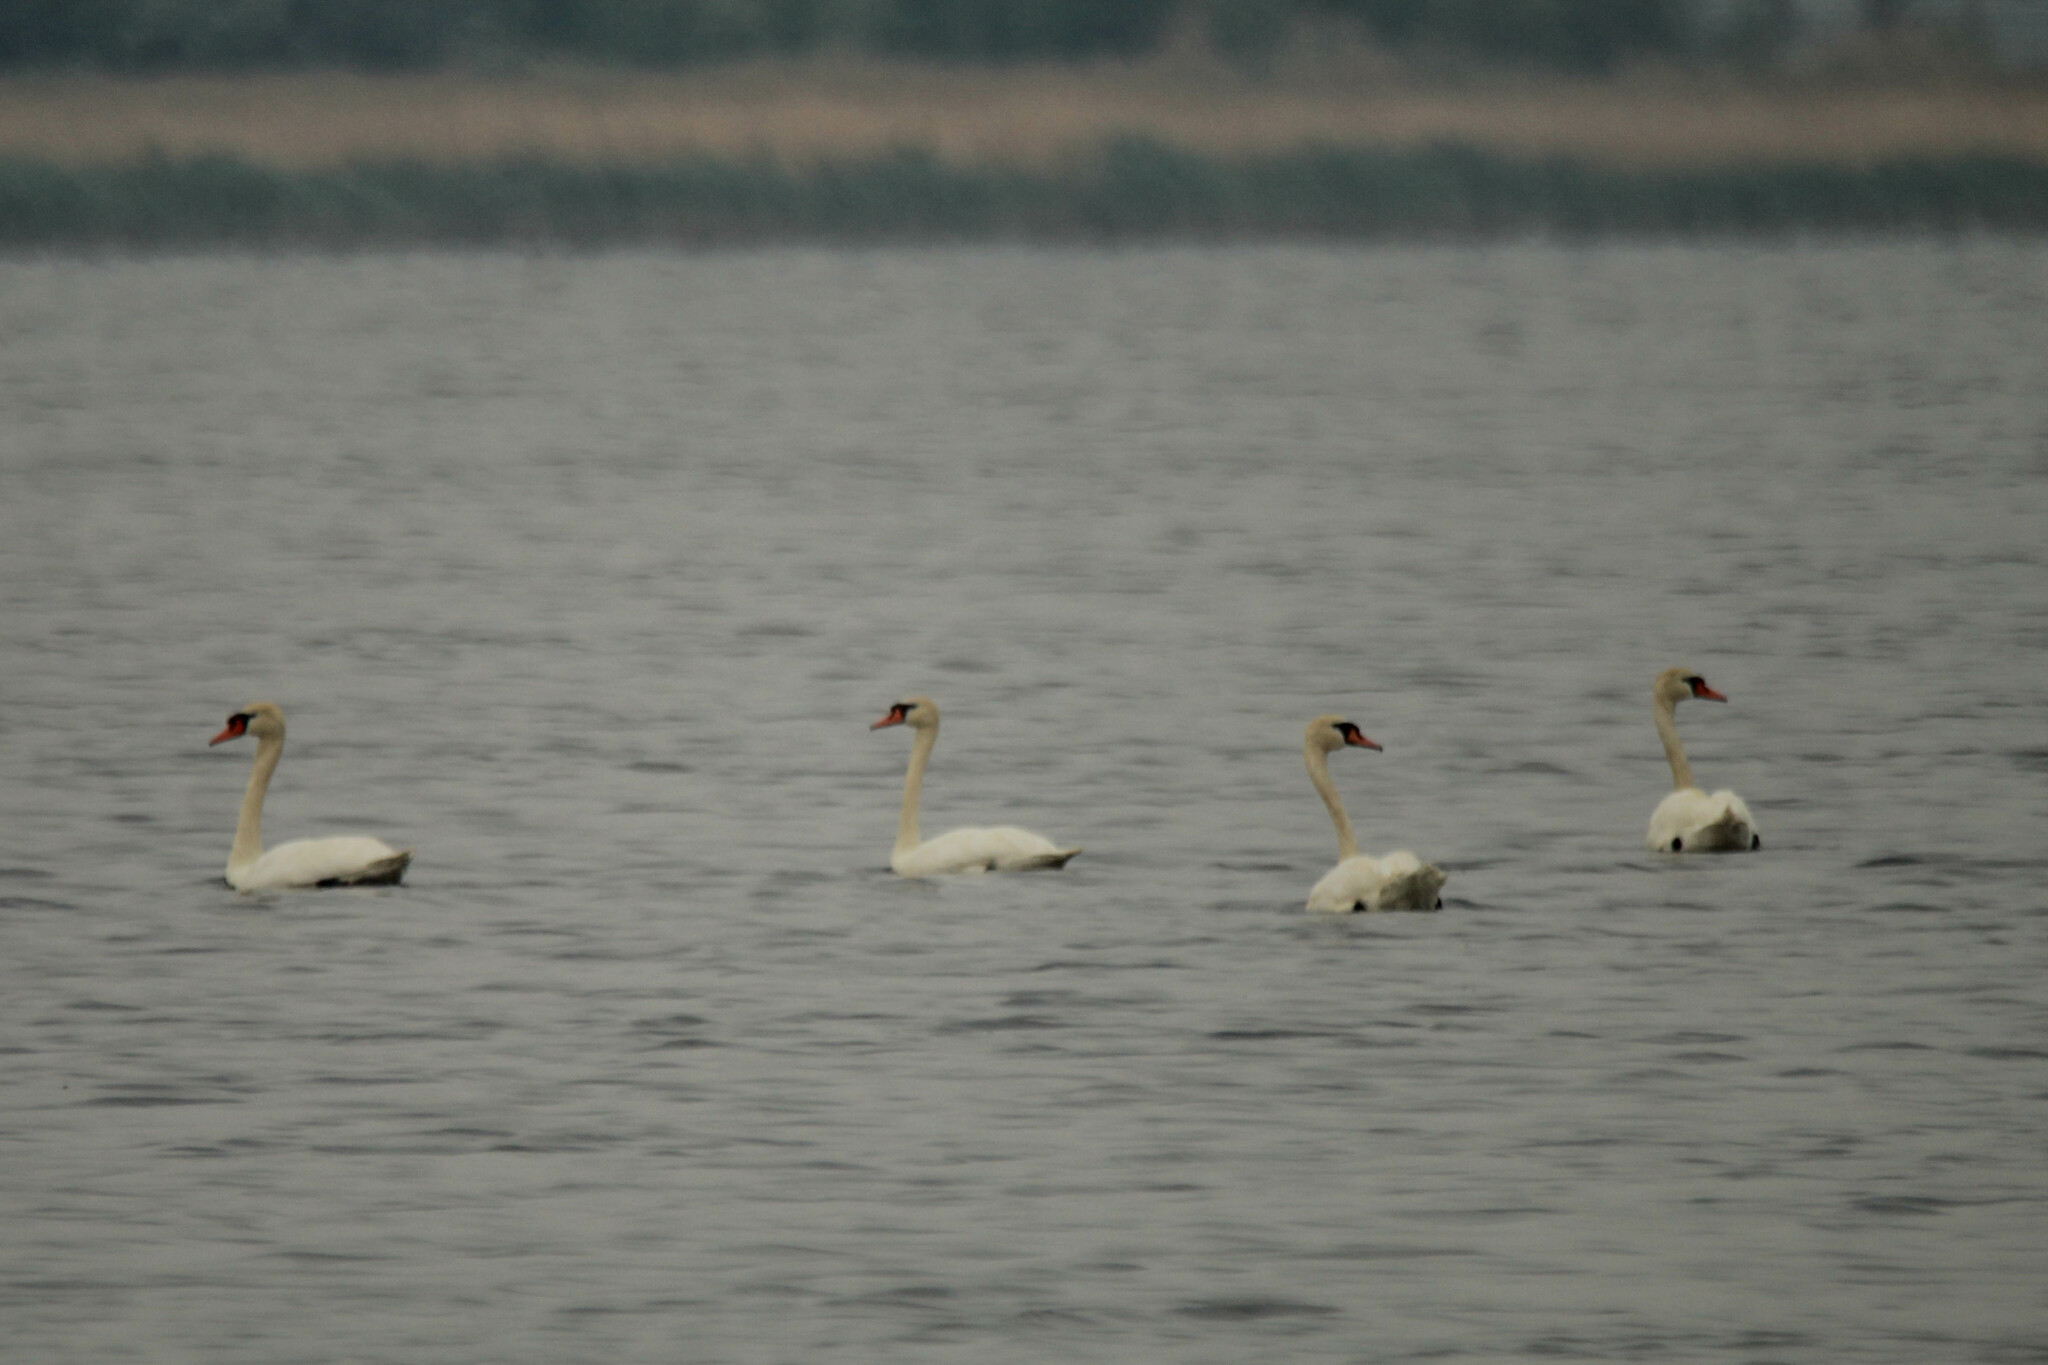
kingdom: Animalia
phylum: Chordata
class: Aves
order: Anseriformes
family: Anatidae
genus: Cygnus
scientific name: Cygnus olor
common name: Mute swan
